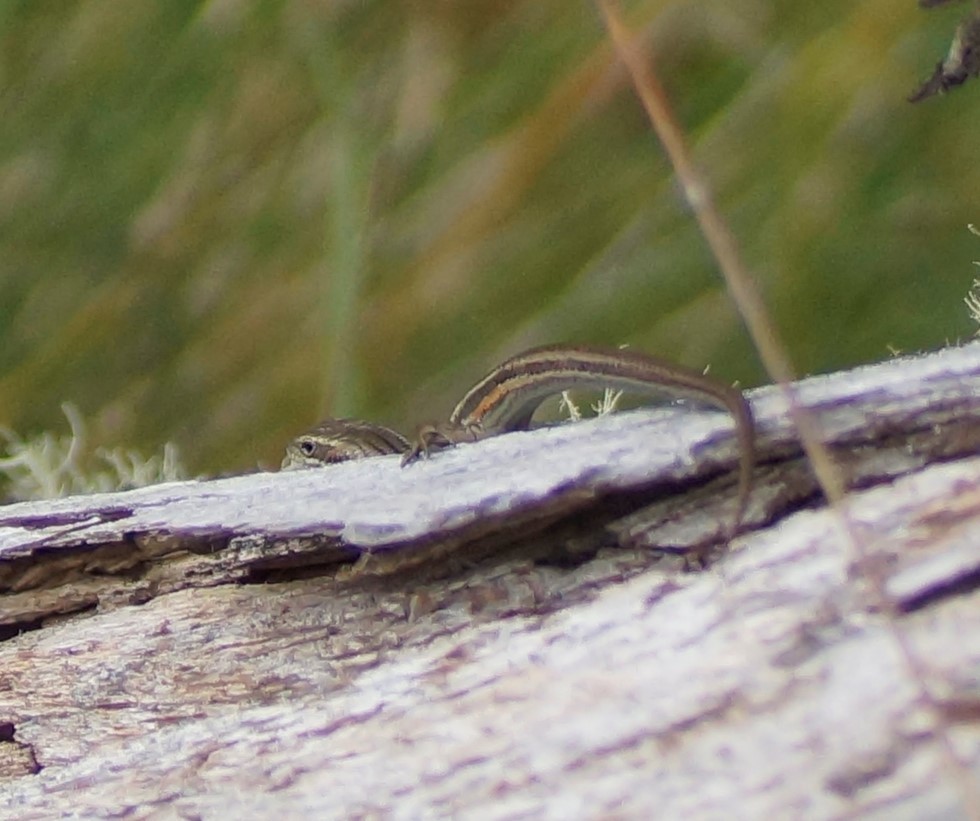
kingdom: Animalia
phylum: Chordata
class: Squamata
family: Scincidae
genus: Pseudemoia
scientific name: Pseudemoia pagenstecheri
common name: Southern grass tussock skink
